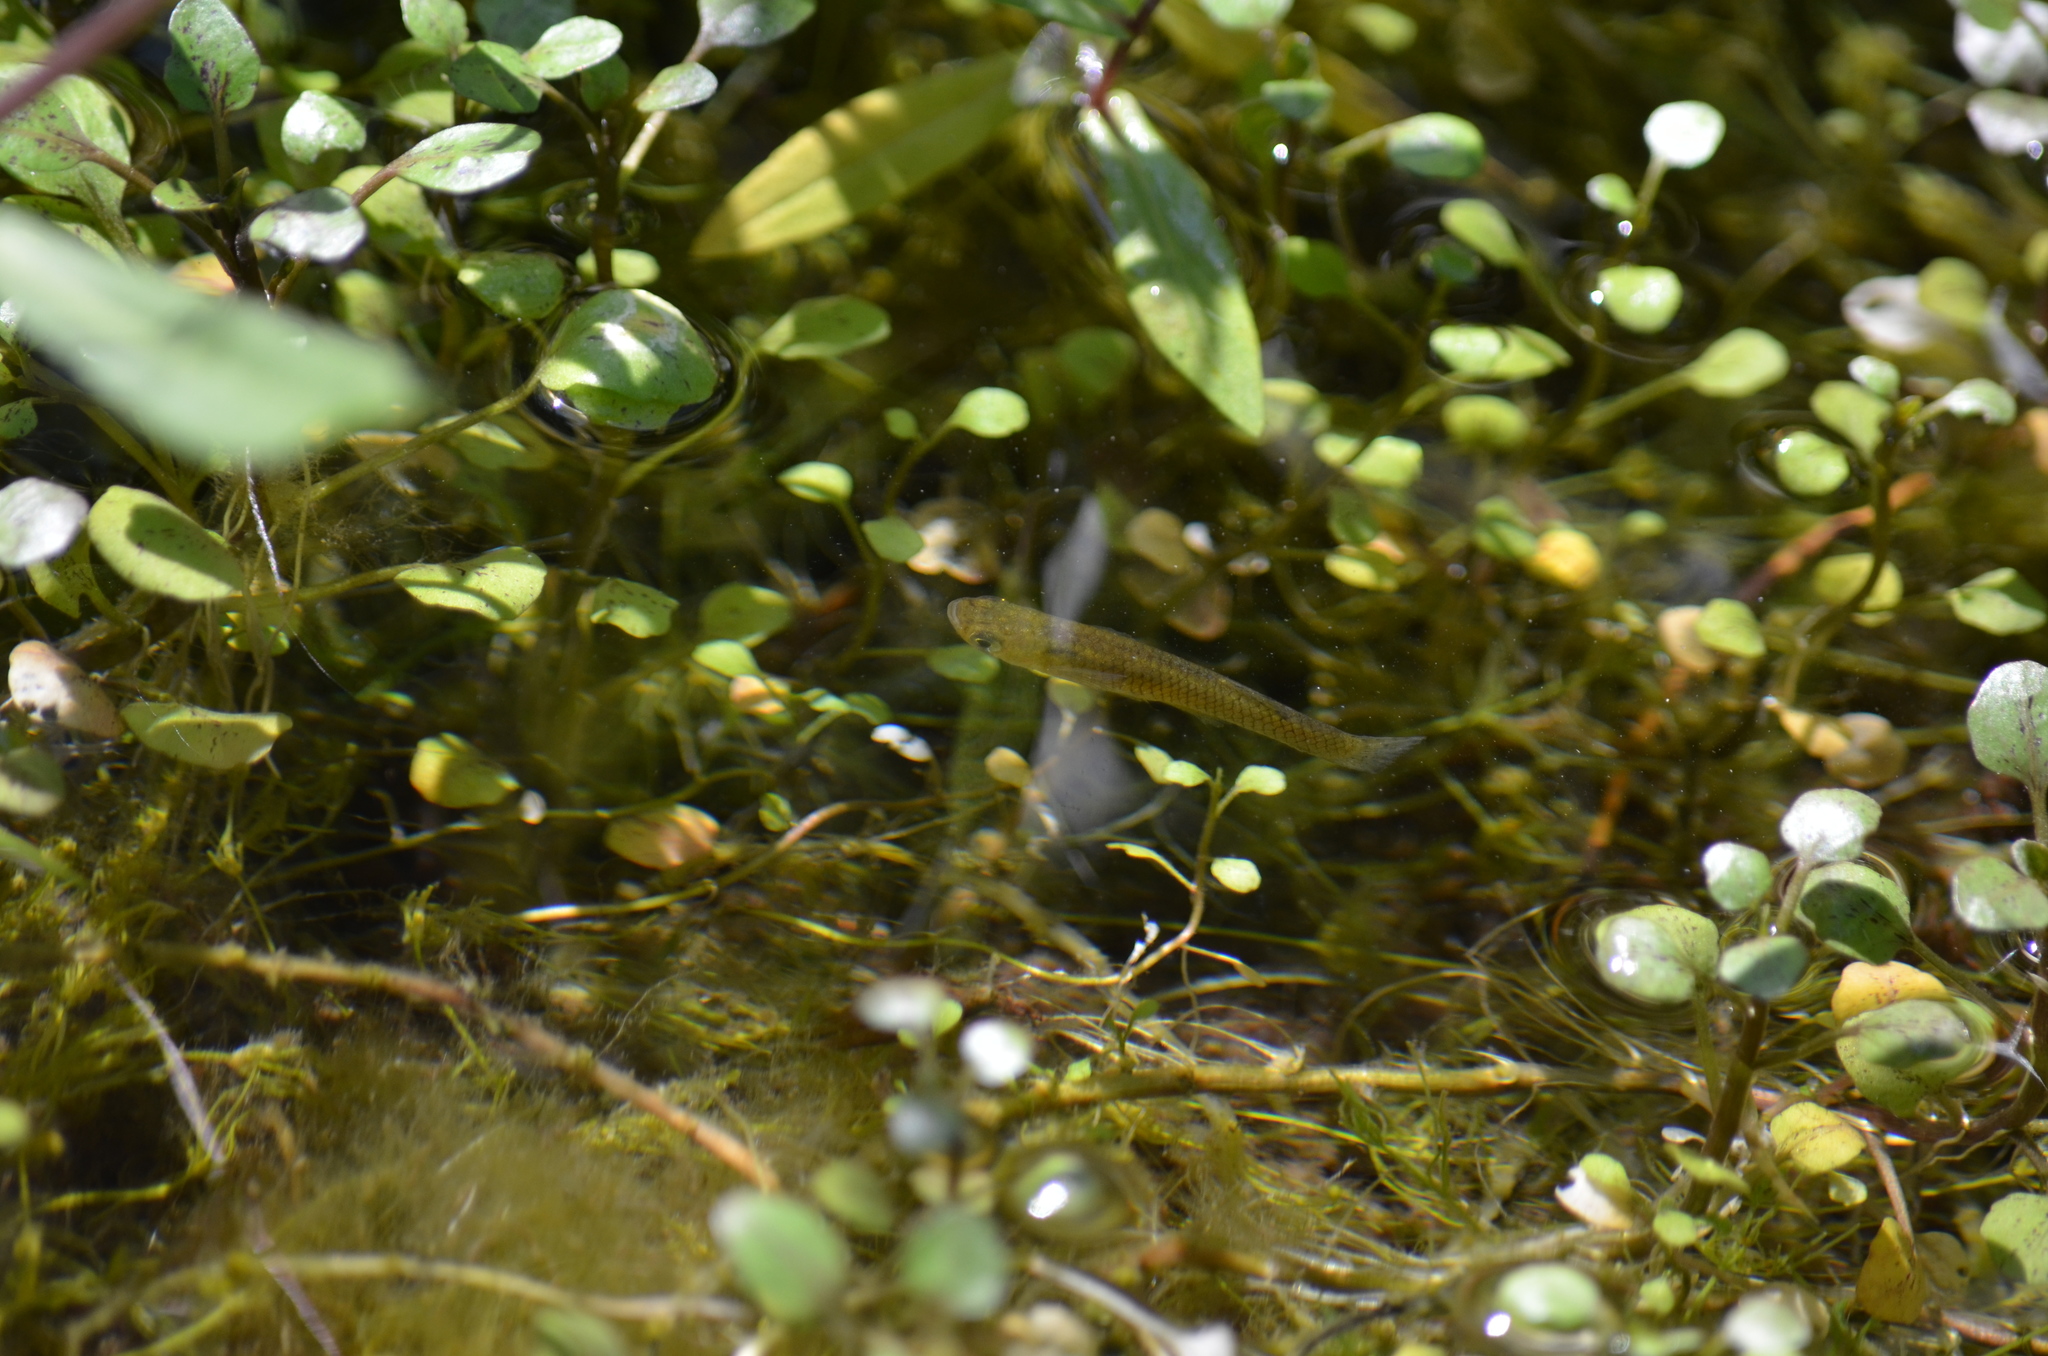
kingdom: Animalia
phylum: Chordata
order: Cyprinodontiformes
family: Poeciliidae
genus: Gambusia
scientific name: Gambusia affinis
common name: Mosquitofish
